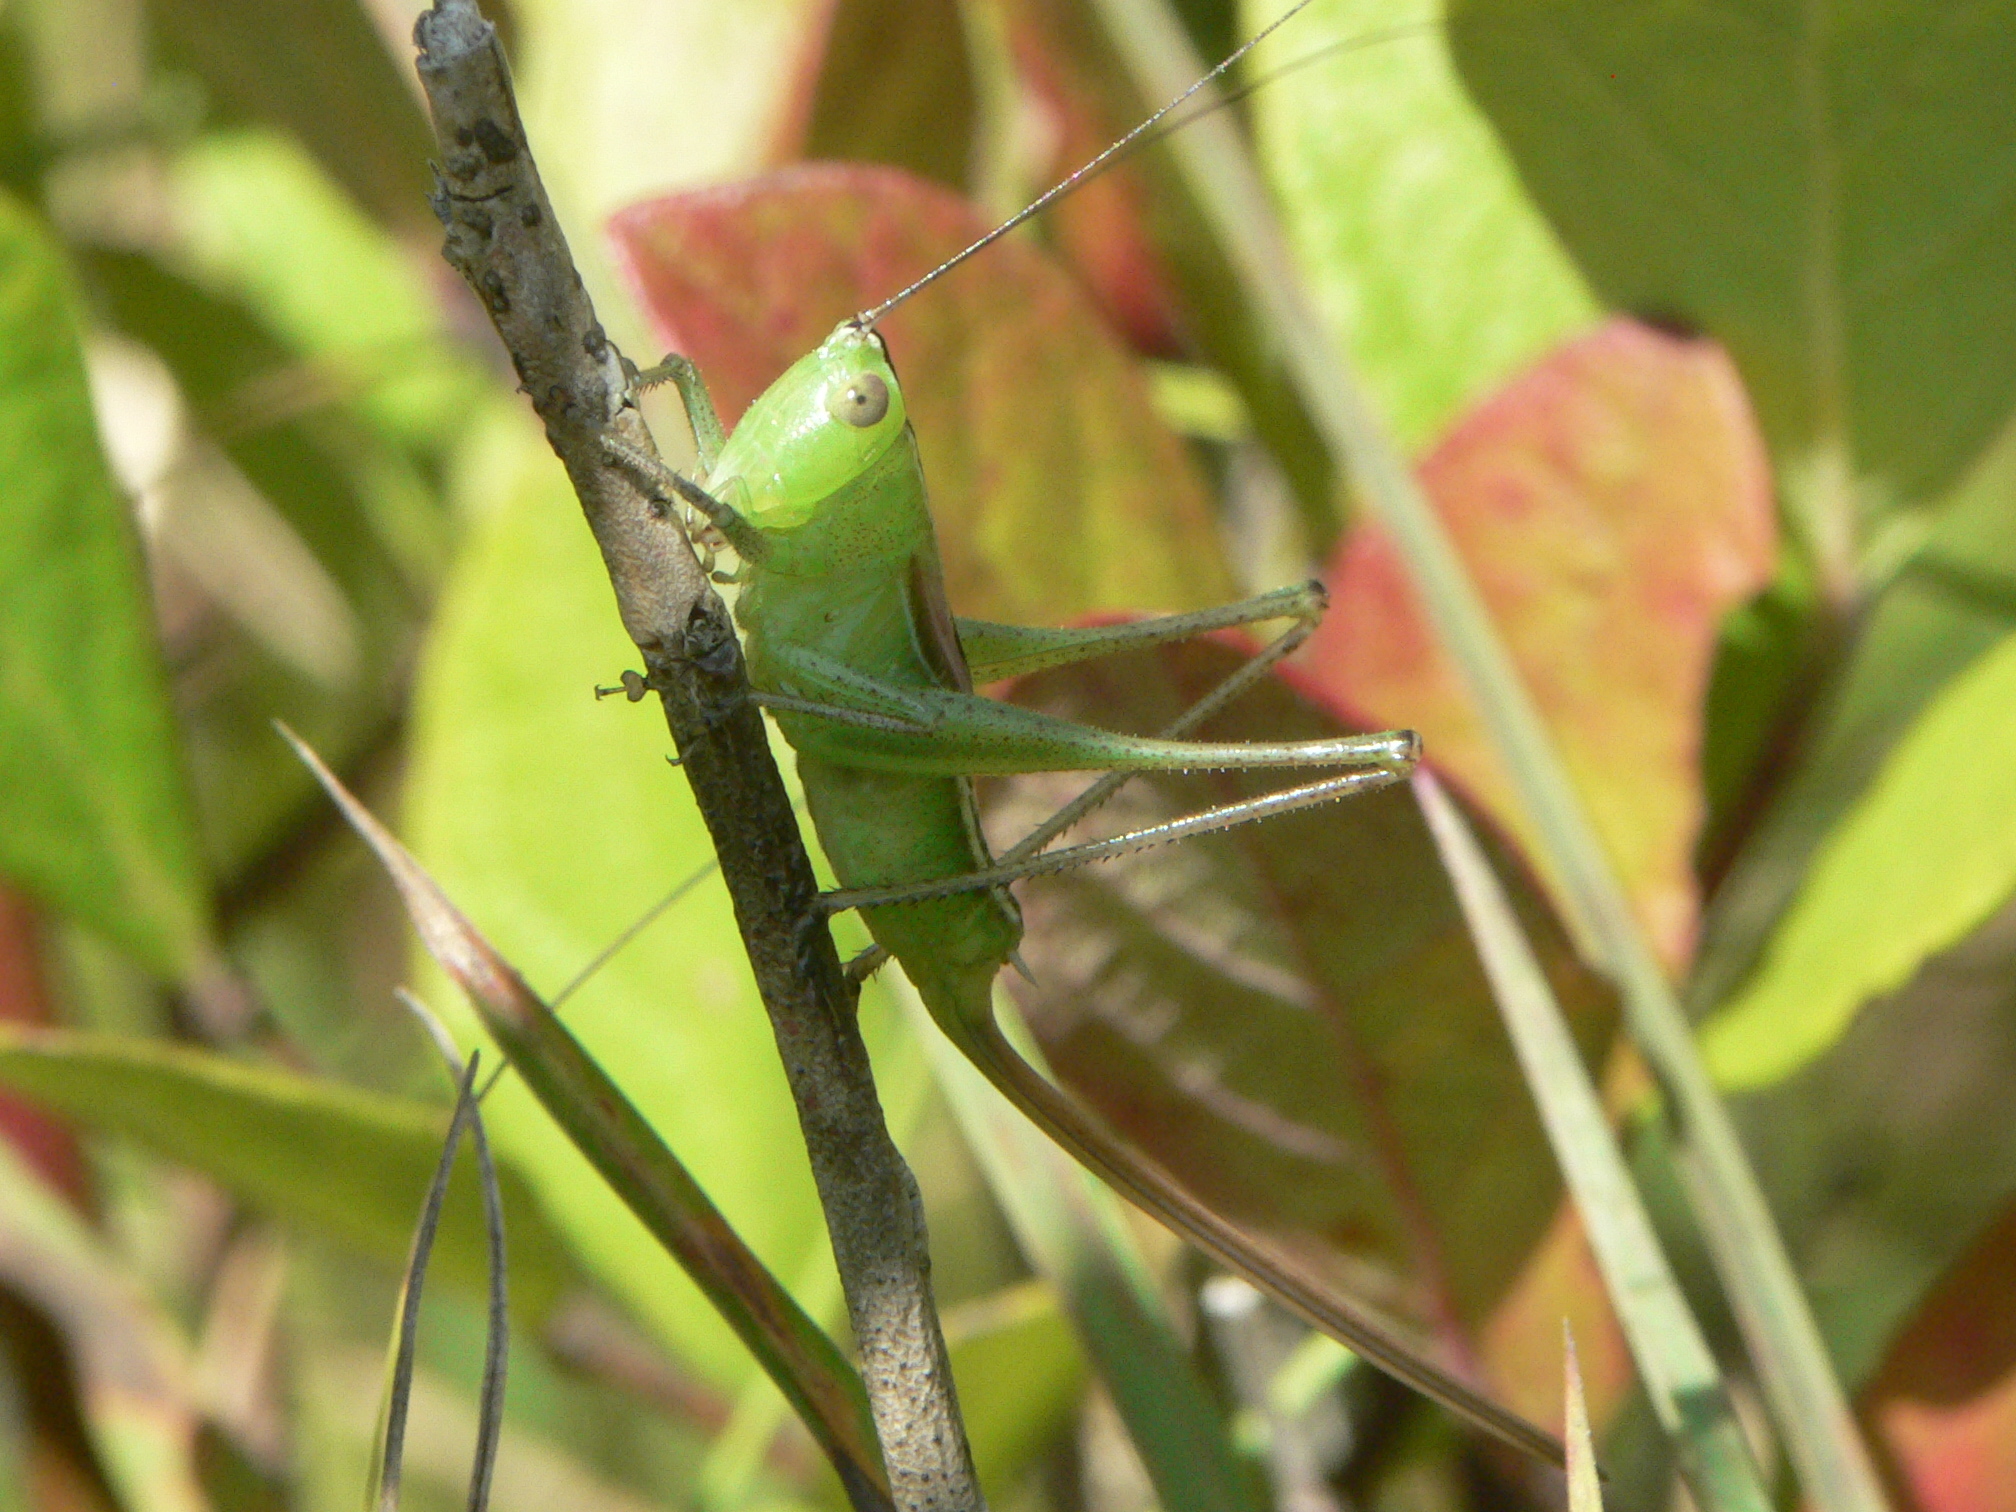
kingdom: Animalia
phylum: Arthropoda
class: Insecta
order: Orthoptera
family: Tettigoniidae
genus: Conocephalus
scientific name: Conocephalus strictus
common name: Straight-lanced katydid
